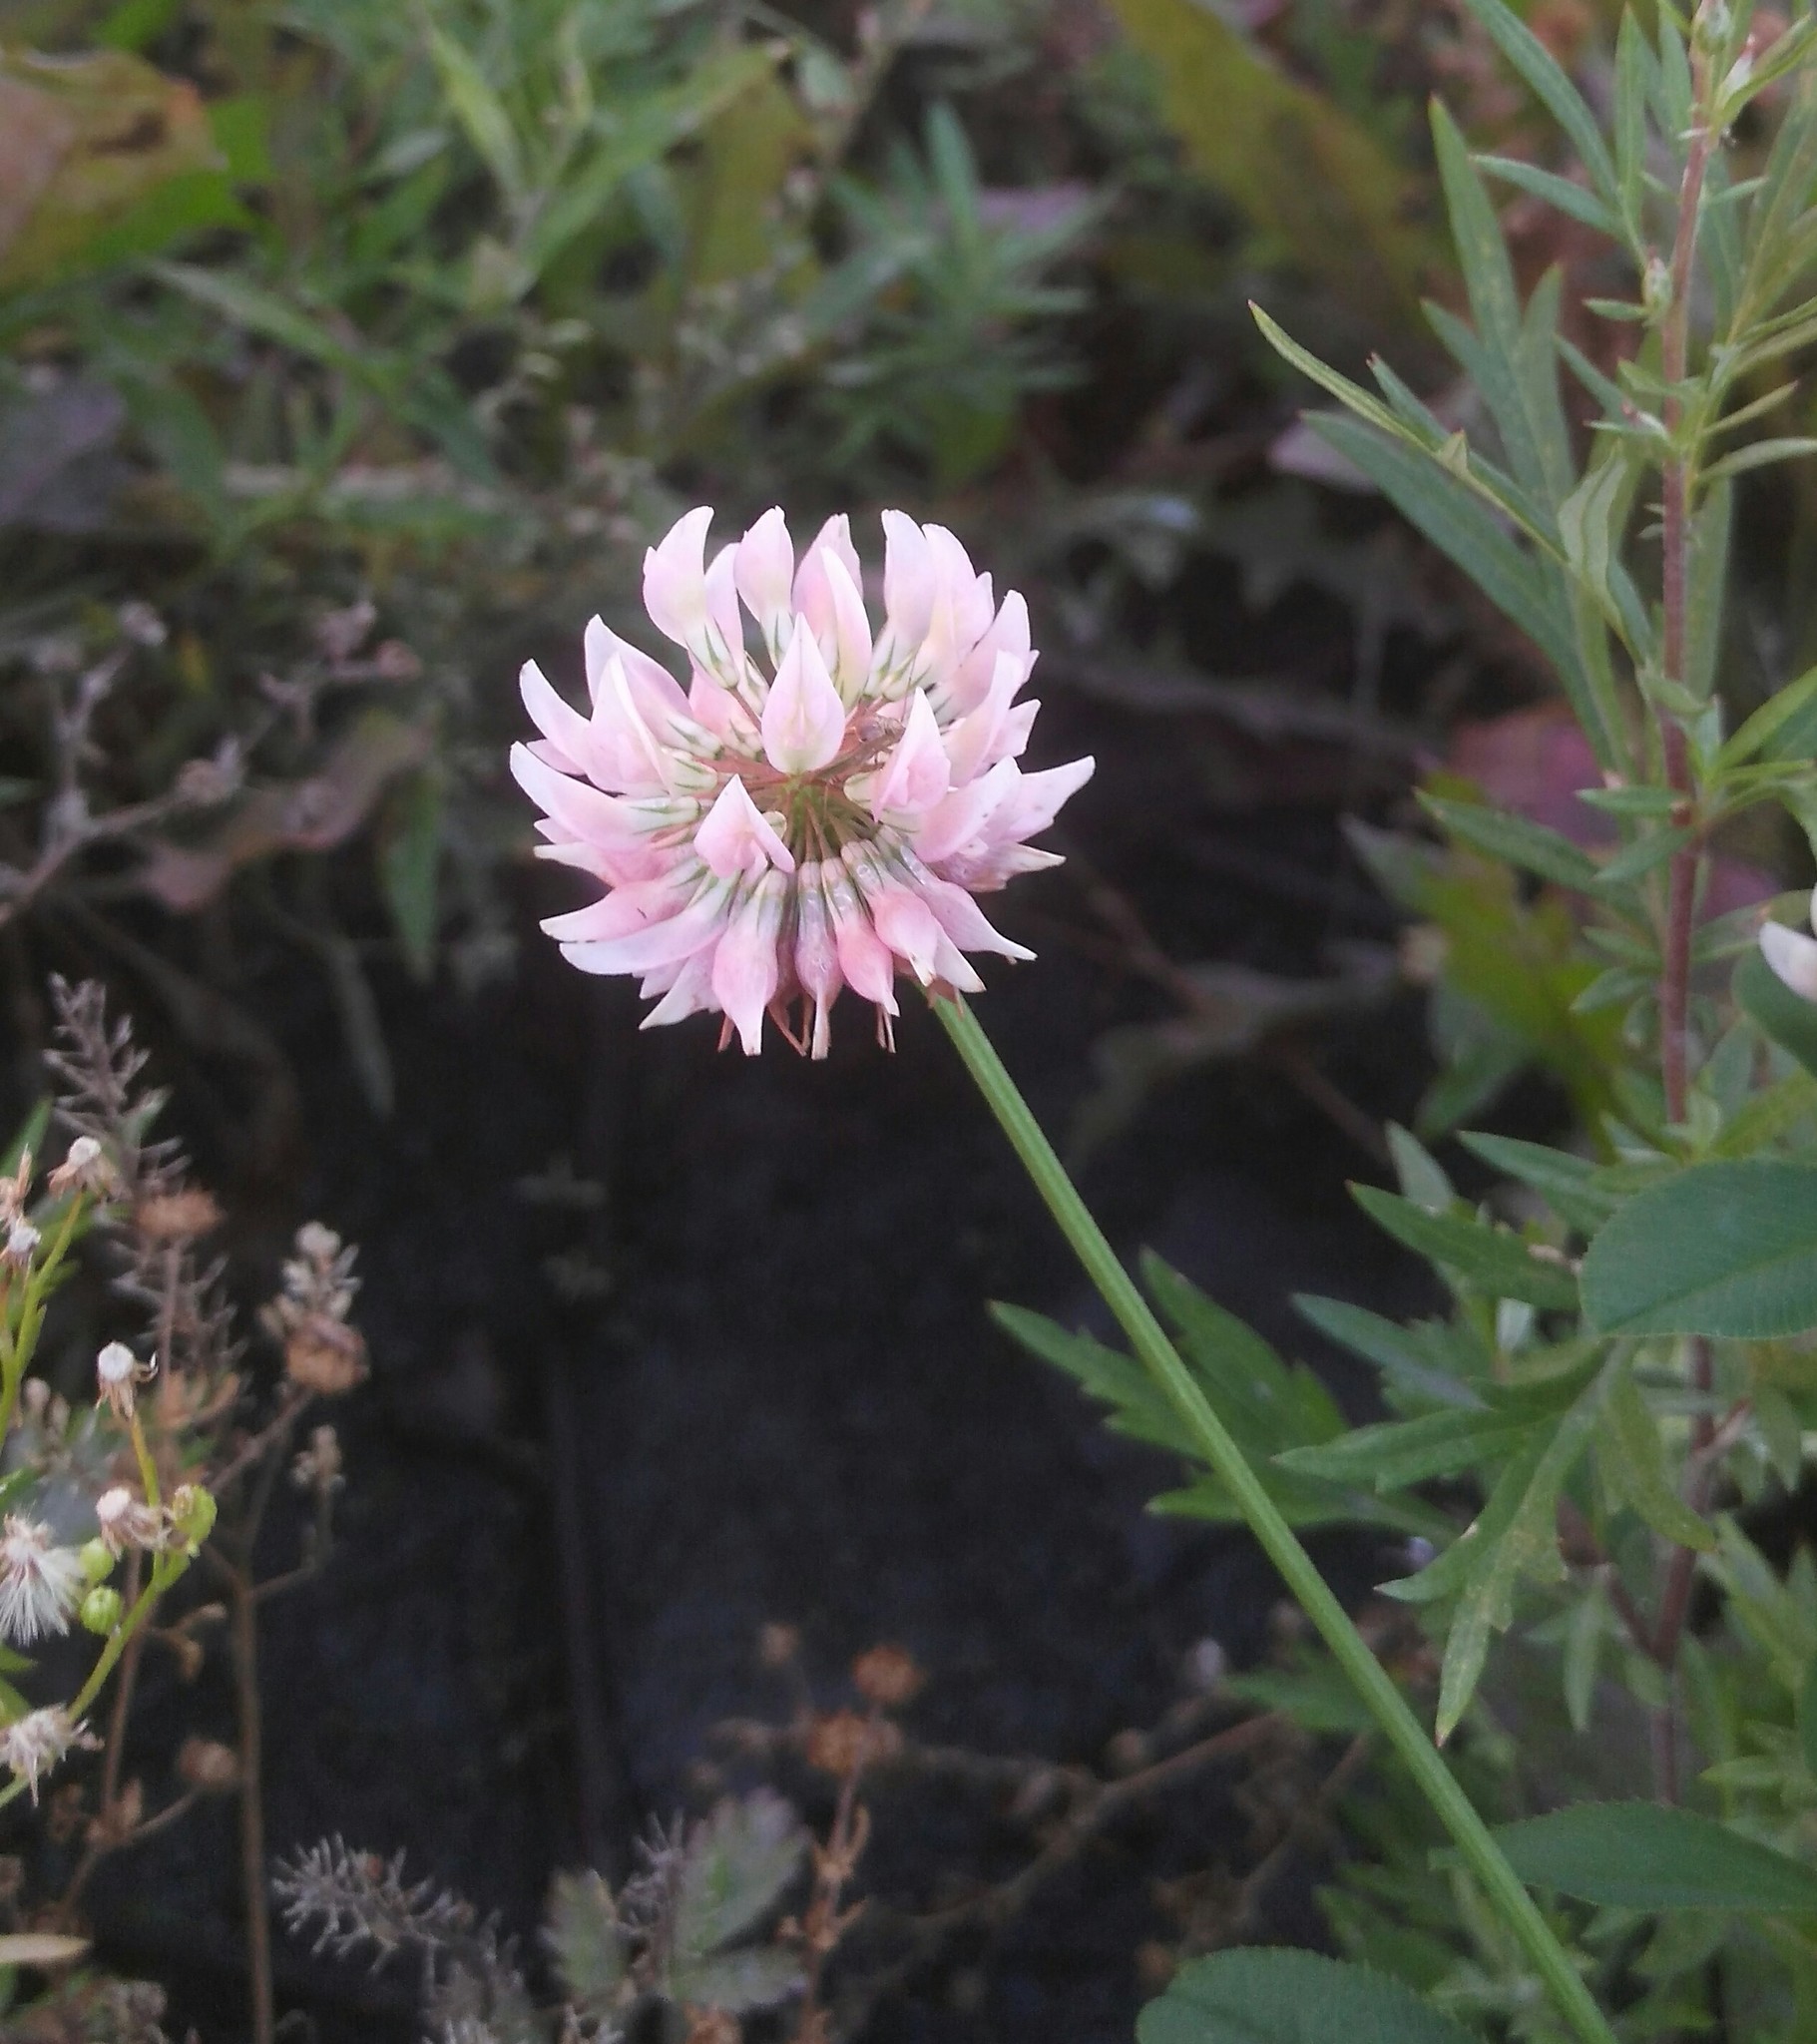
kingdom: Plantae
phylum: Tracheophyta
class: Magnoliopsida
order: Fabales
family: Fabaceae
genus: Trifolium
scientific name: Trifolium hybridum
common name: Alsike clover
